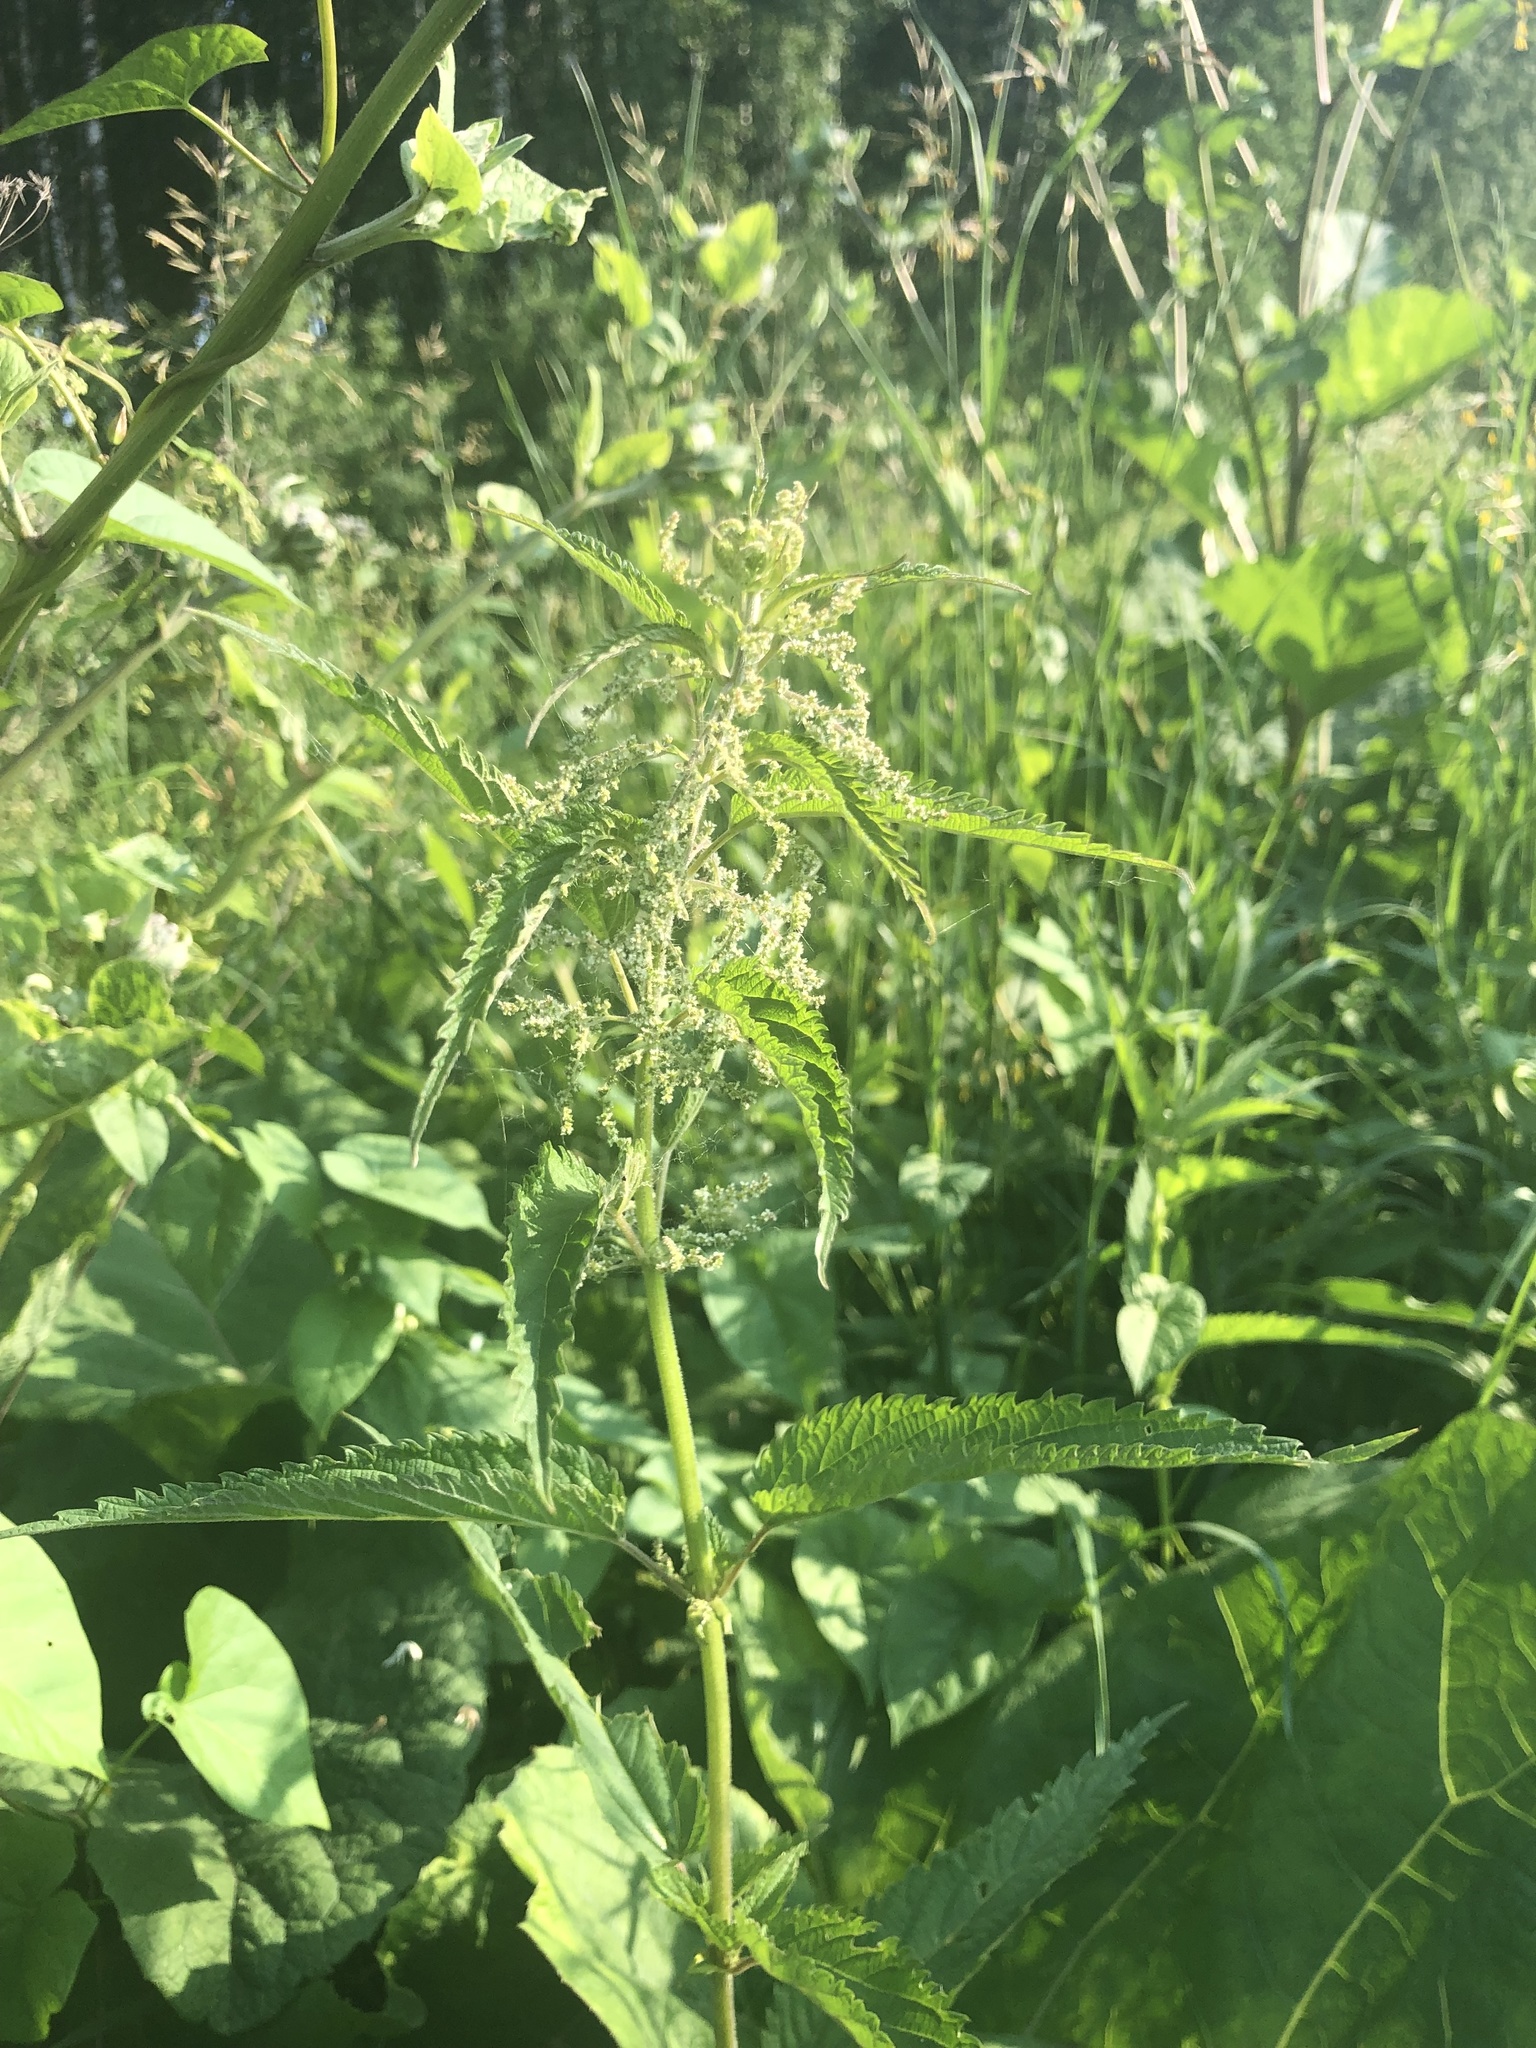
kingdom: Plantae
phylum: Tracheophyta
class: Magnoliopsida
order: Rosales
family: Urticaceae
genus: Urtica
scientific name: Urtica dioica
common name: Common nettle
